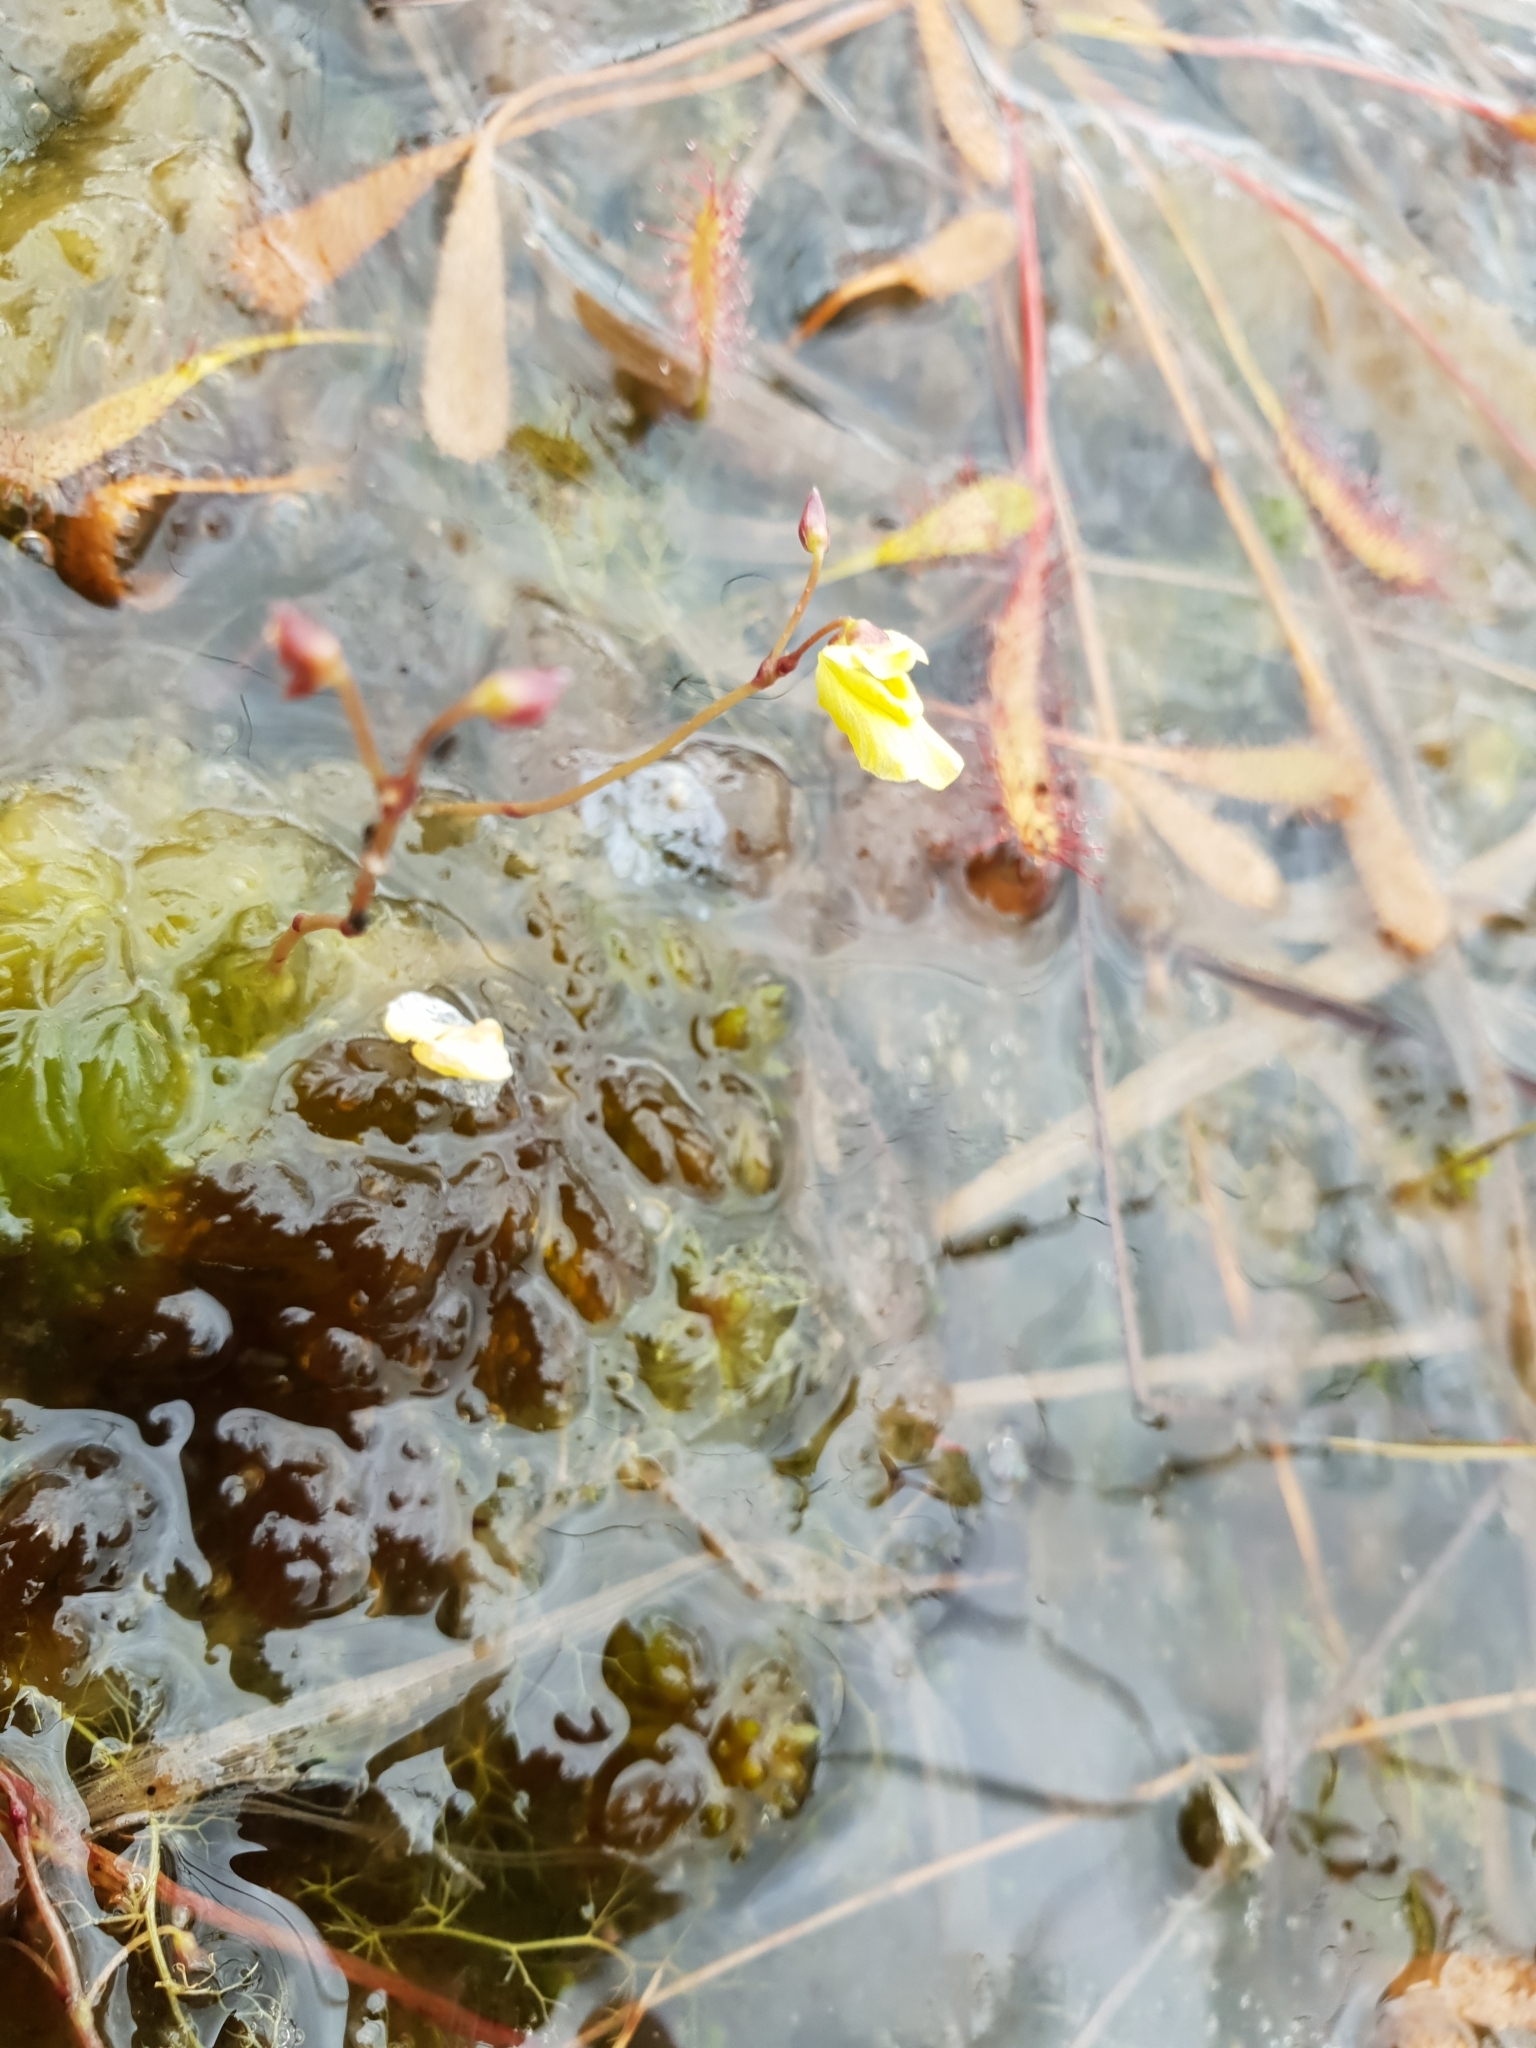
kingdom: Plantae
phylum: Tracheophyta
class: Magnoliopsida
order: Lamiales
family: Lentibulariaceae
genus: Utricularia
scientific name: Utricularia minor
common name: Lesser bladderwort
